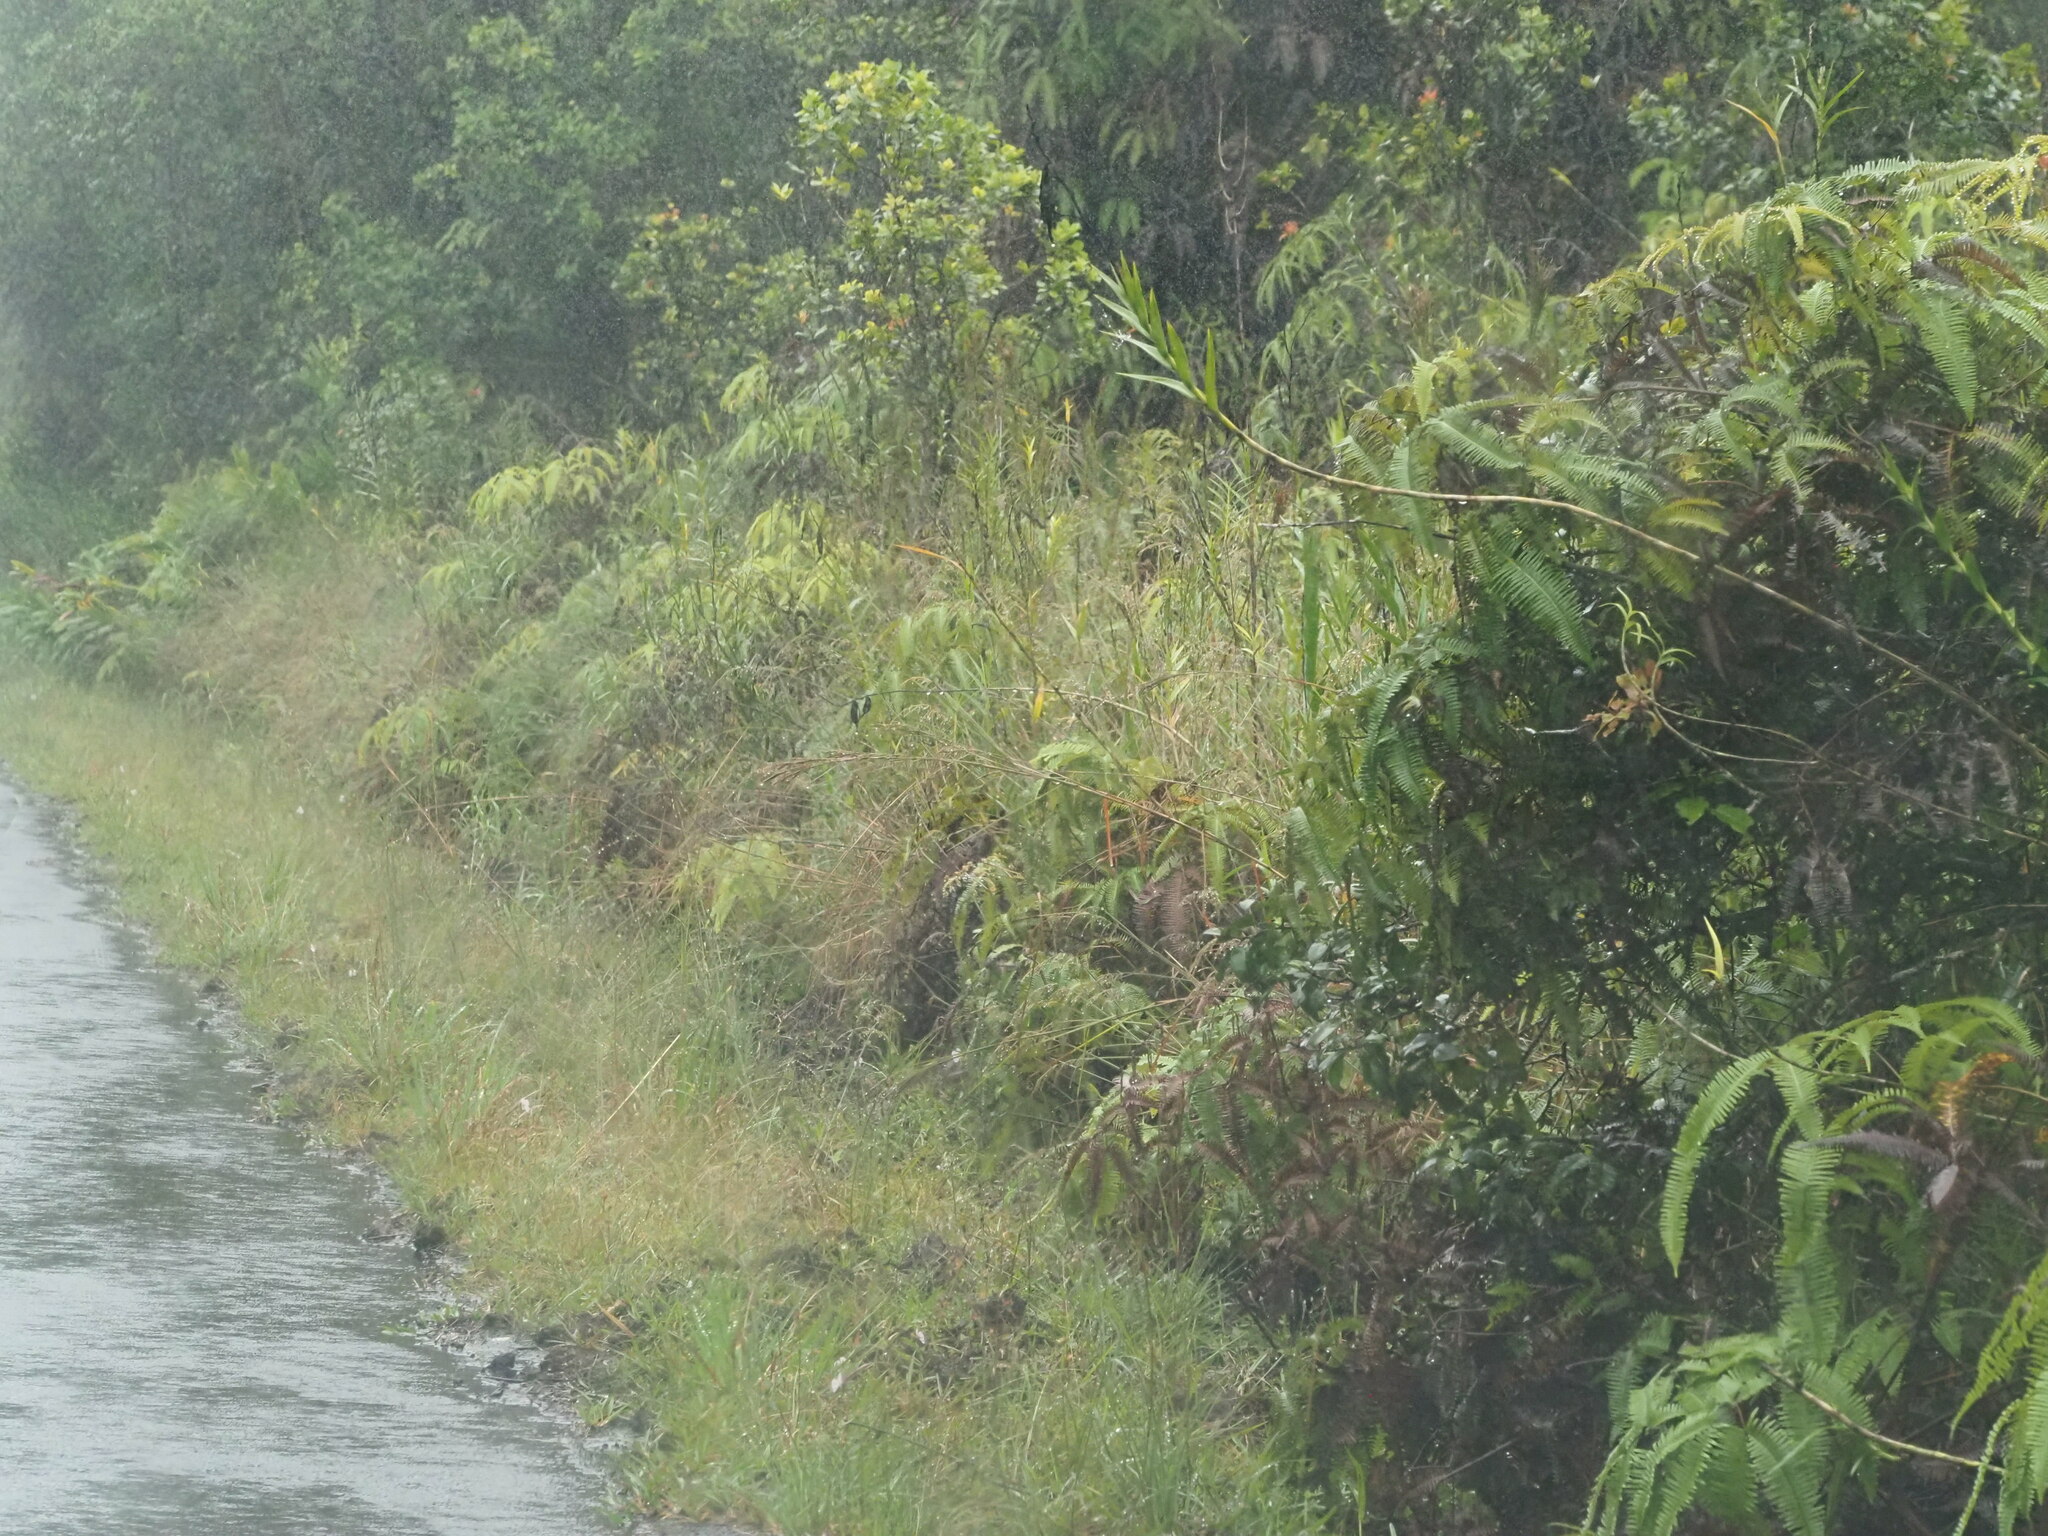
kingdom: Plantae
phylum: Tracheophyta
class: Polypodiopsida
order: Gleicheniales
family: Gleicheniaceae
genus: Dicranopteris
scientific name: Dicranopteris linearis
